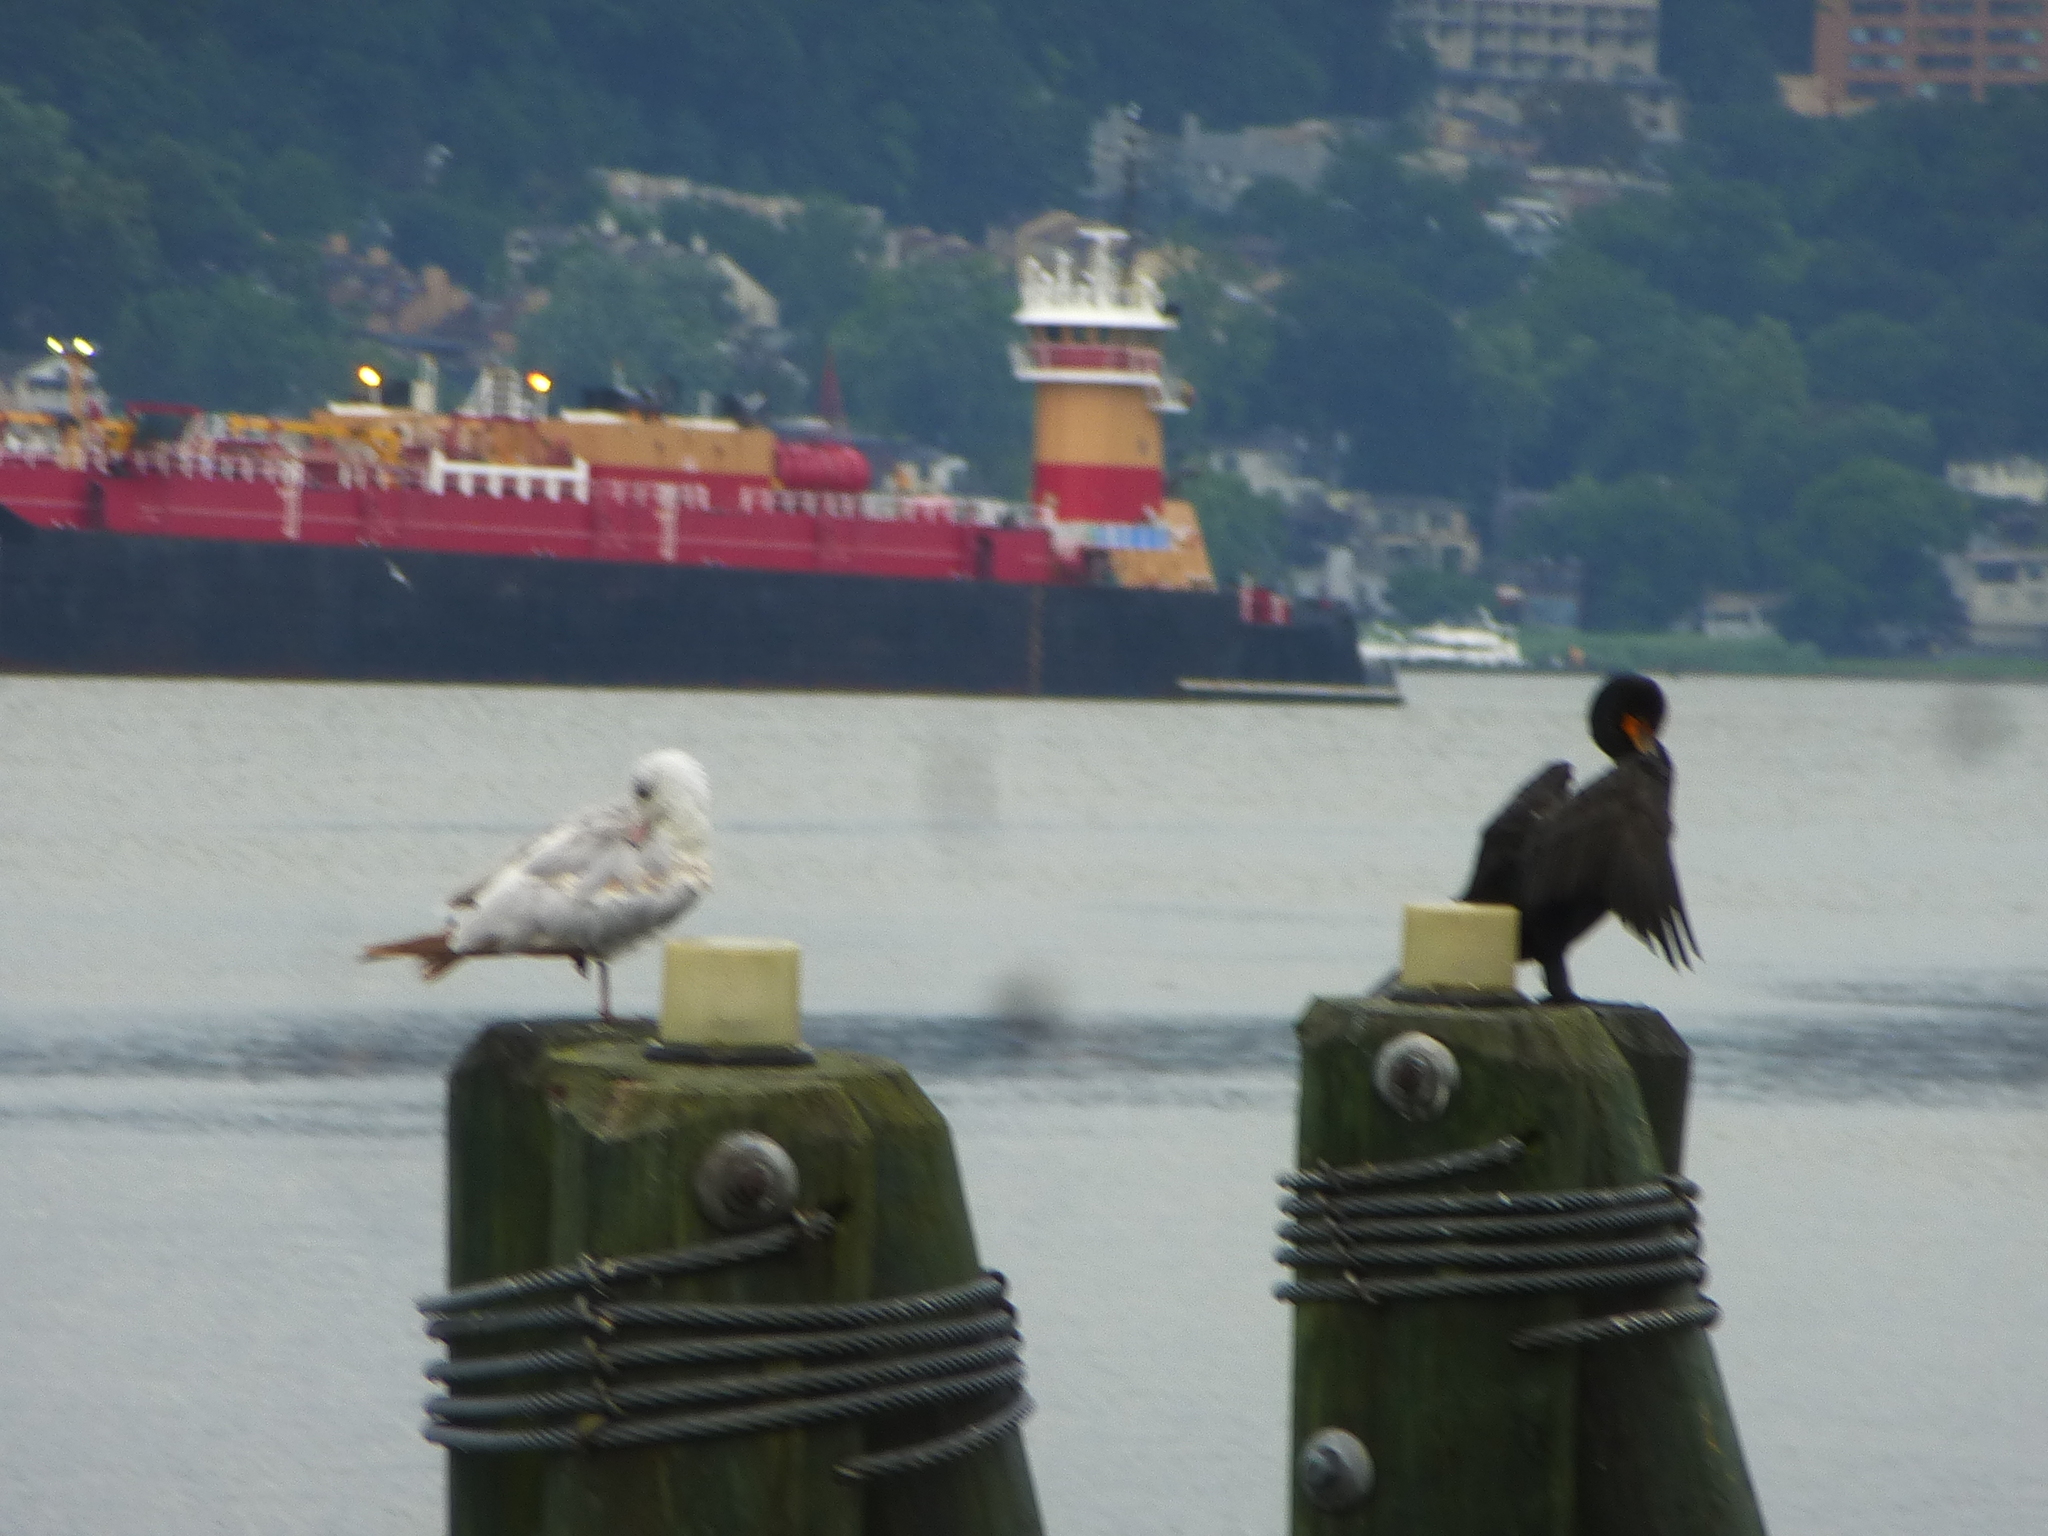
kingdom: Animalia
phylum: Chordata
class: Aves
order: Suliformes
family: Phalacrocoracidae
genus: Phalacrocorax
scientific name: Phalacrocorax auritus
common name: Double-crested cormorant
